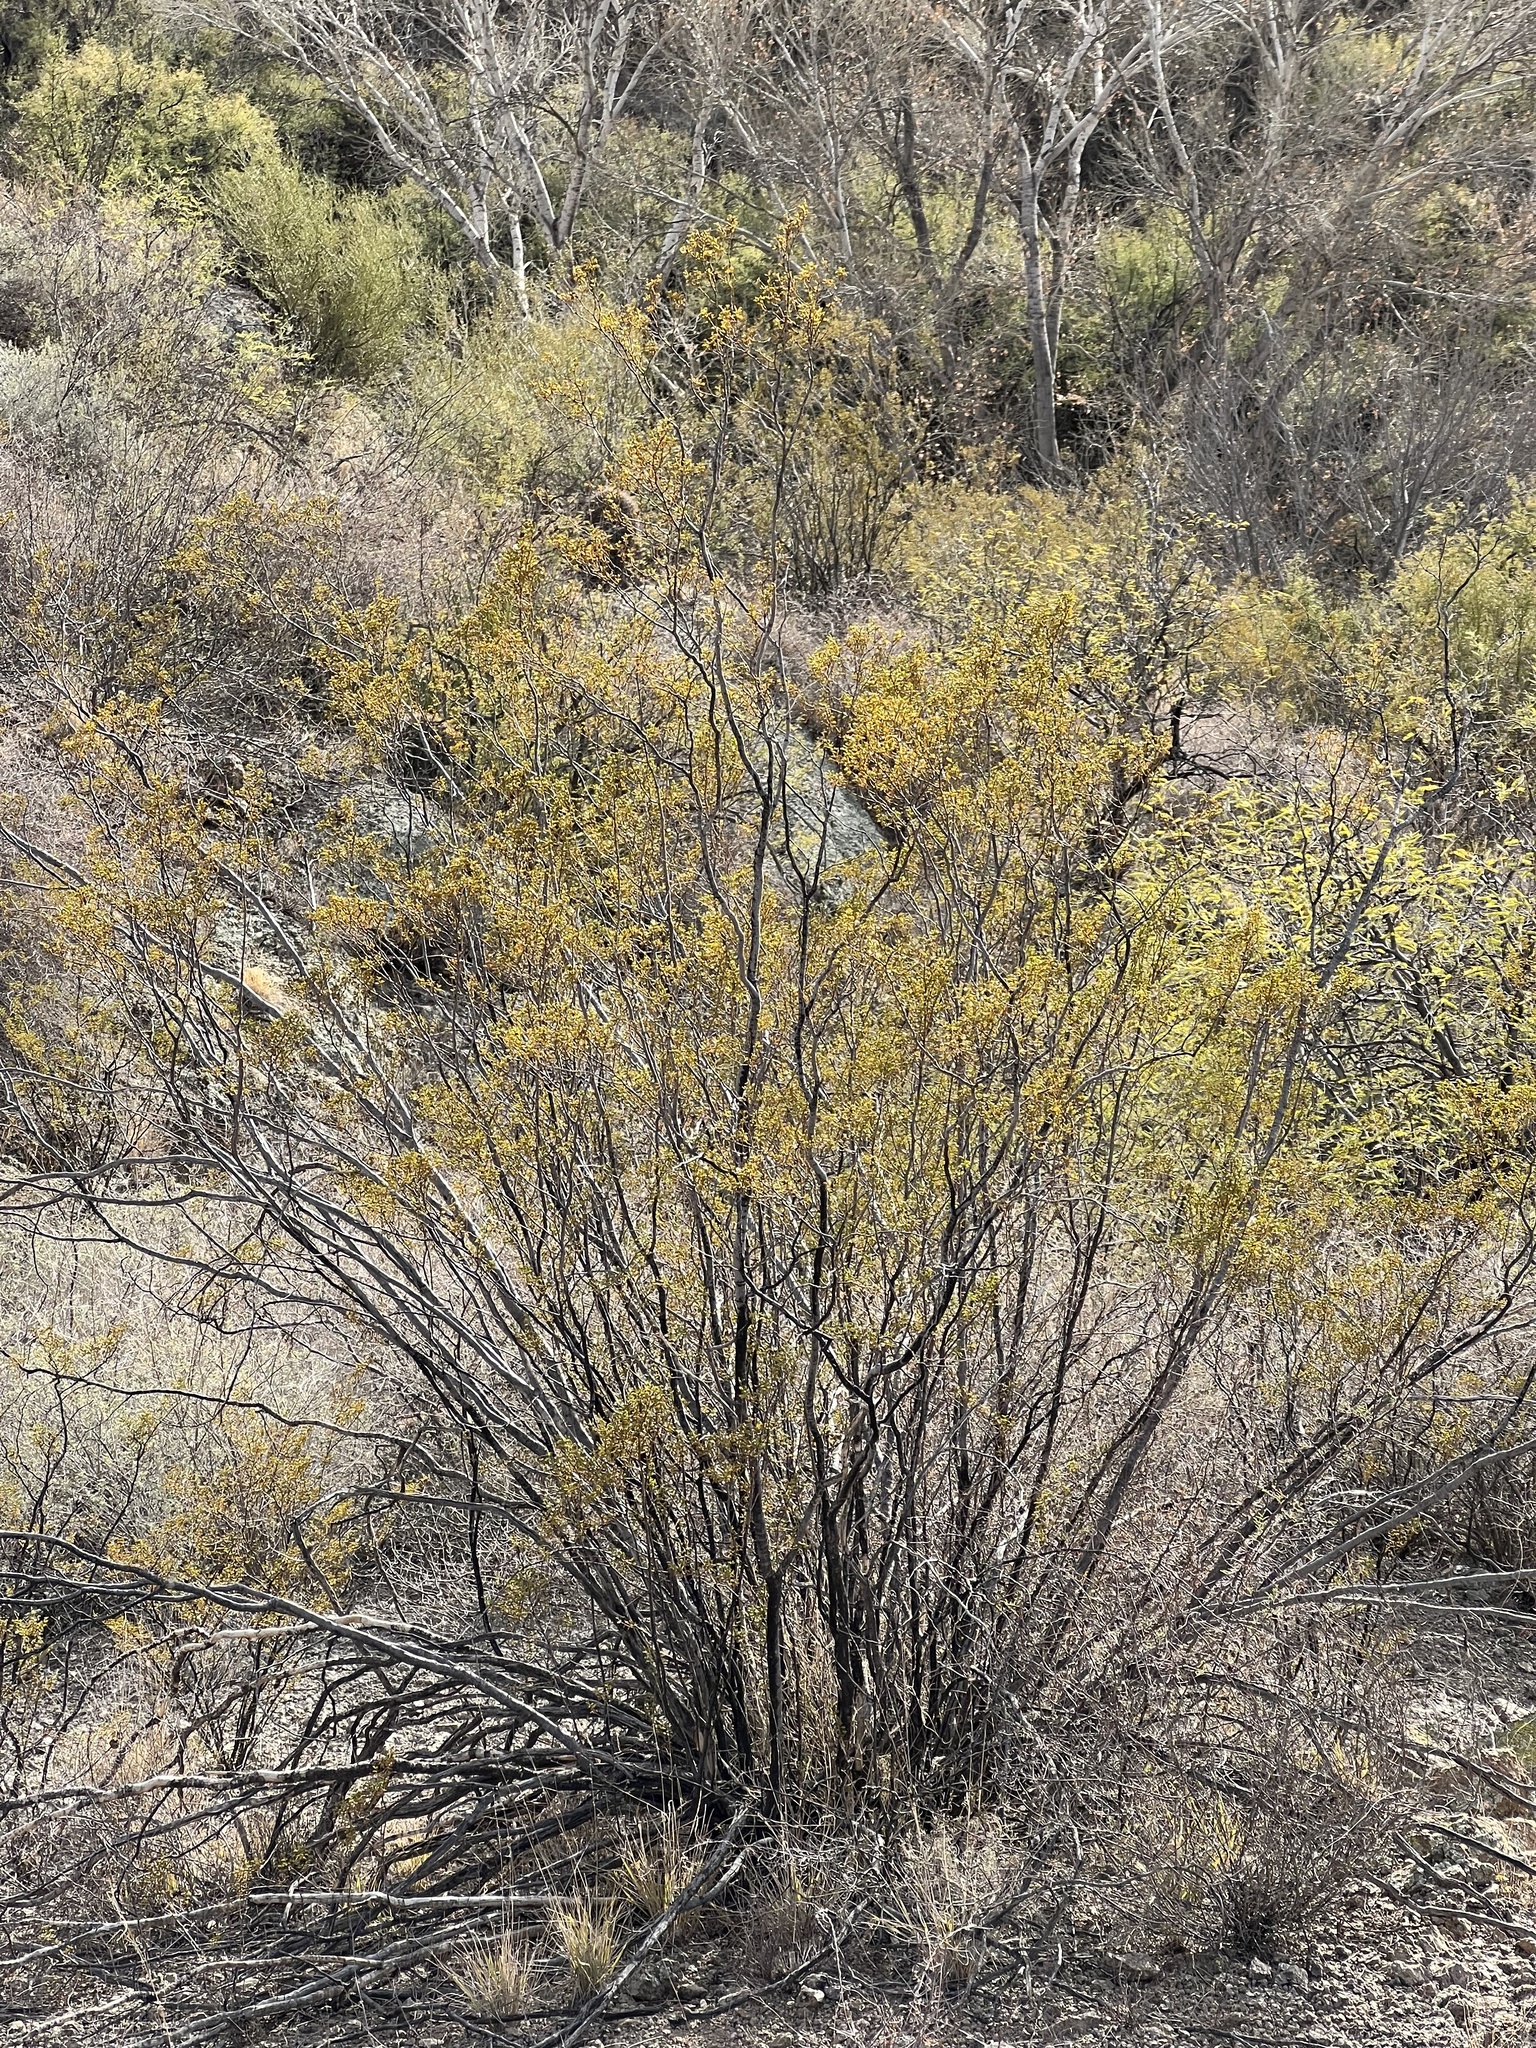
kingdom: Plantae
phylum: Tracheophyta
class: Magnoliopsida
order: Zygophyllales
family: Zygophyllaceae
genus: Larrea
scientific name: Larrea tridentata
